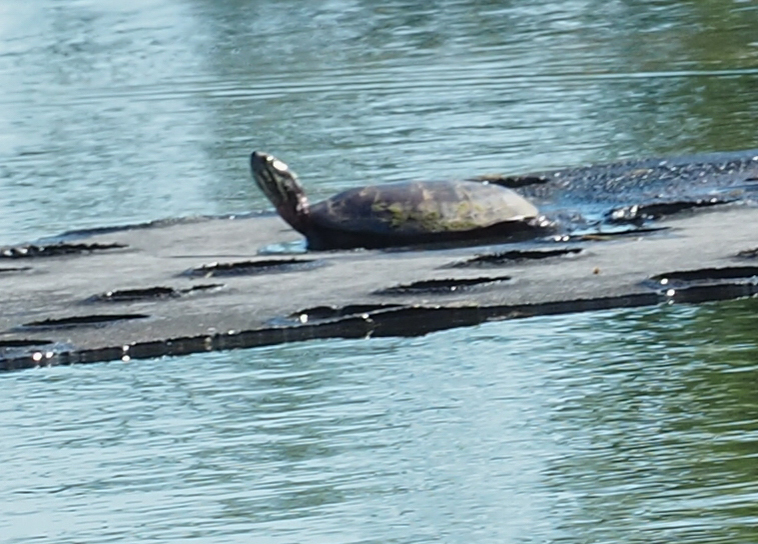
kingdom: Animalia
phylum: Chordata
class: Testudines
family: Emydidae
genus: Chrysemys
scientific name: Chrysemys picta
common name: Painted turtle
